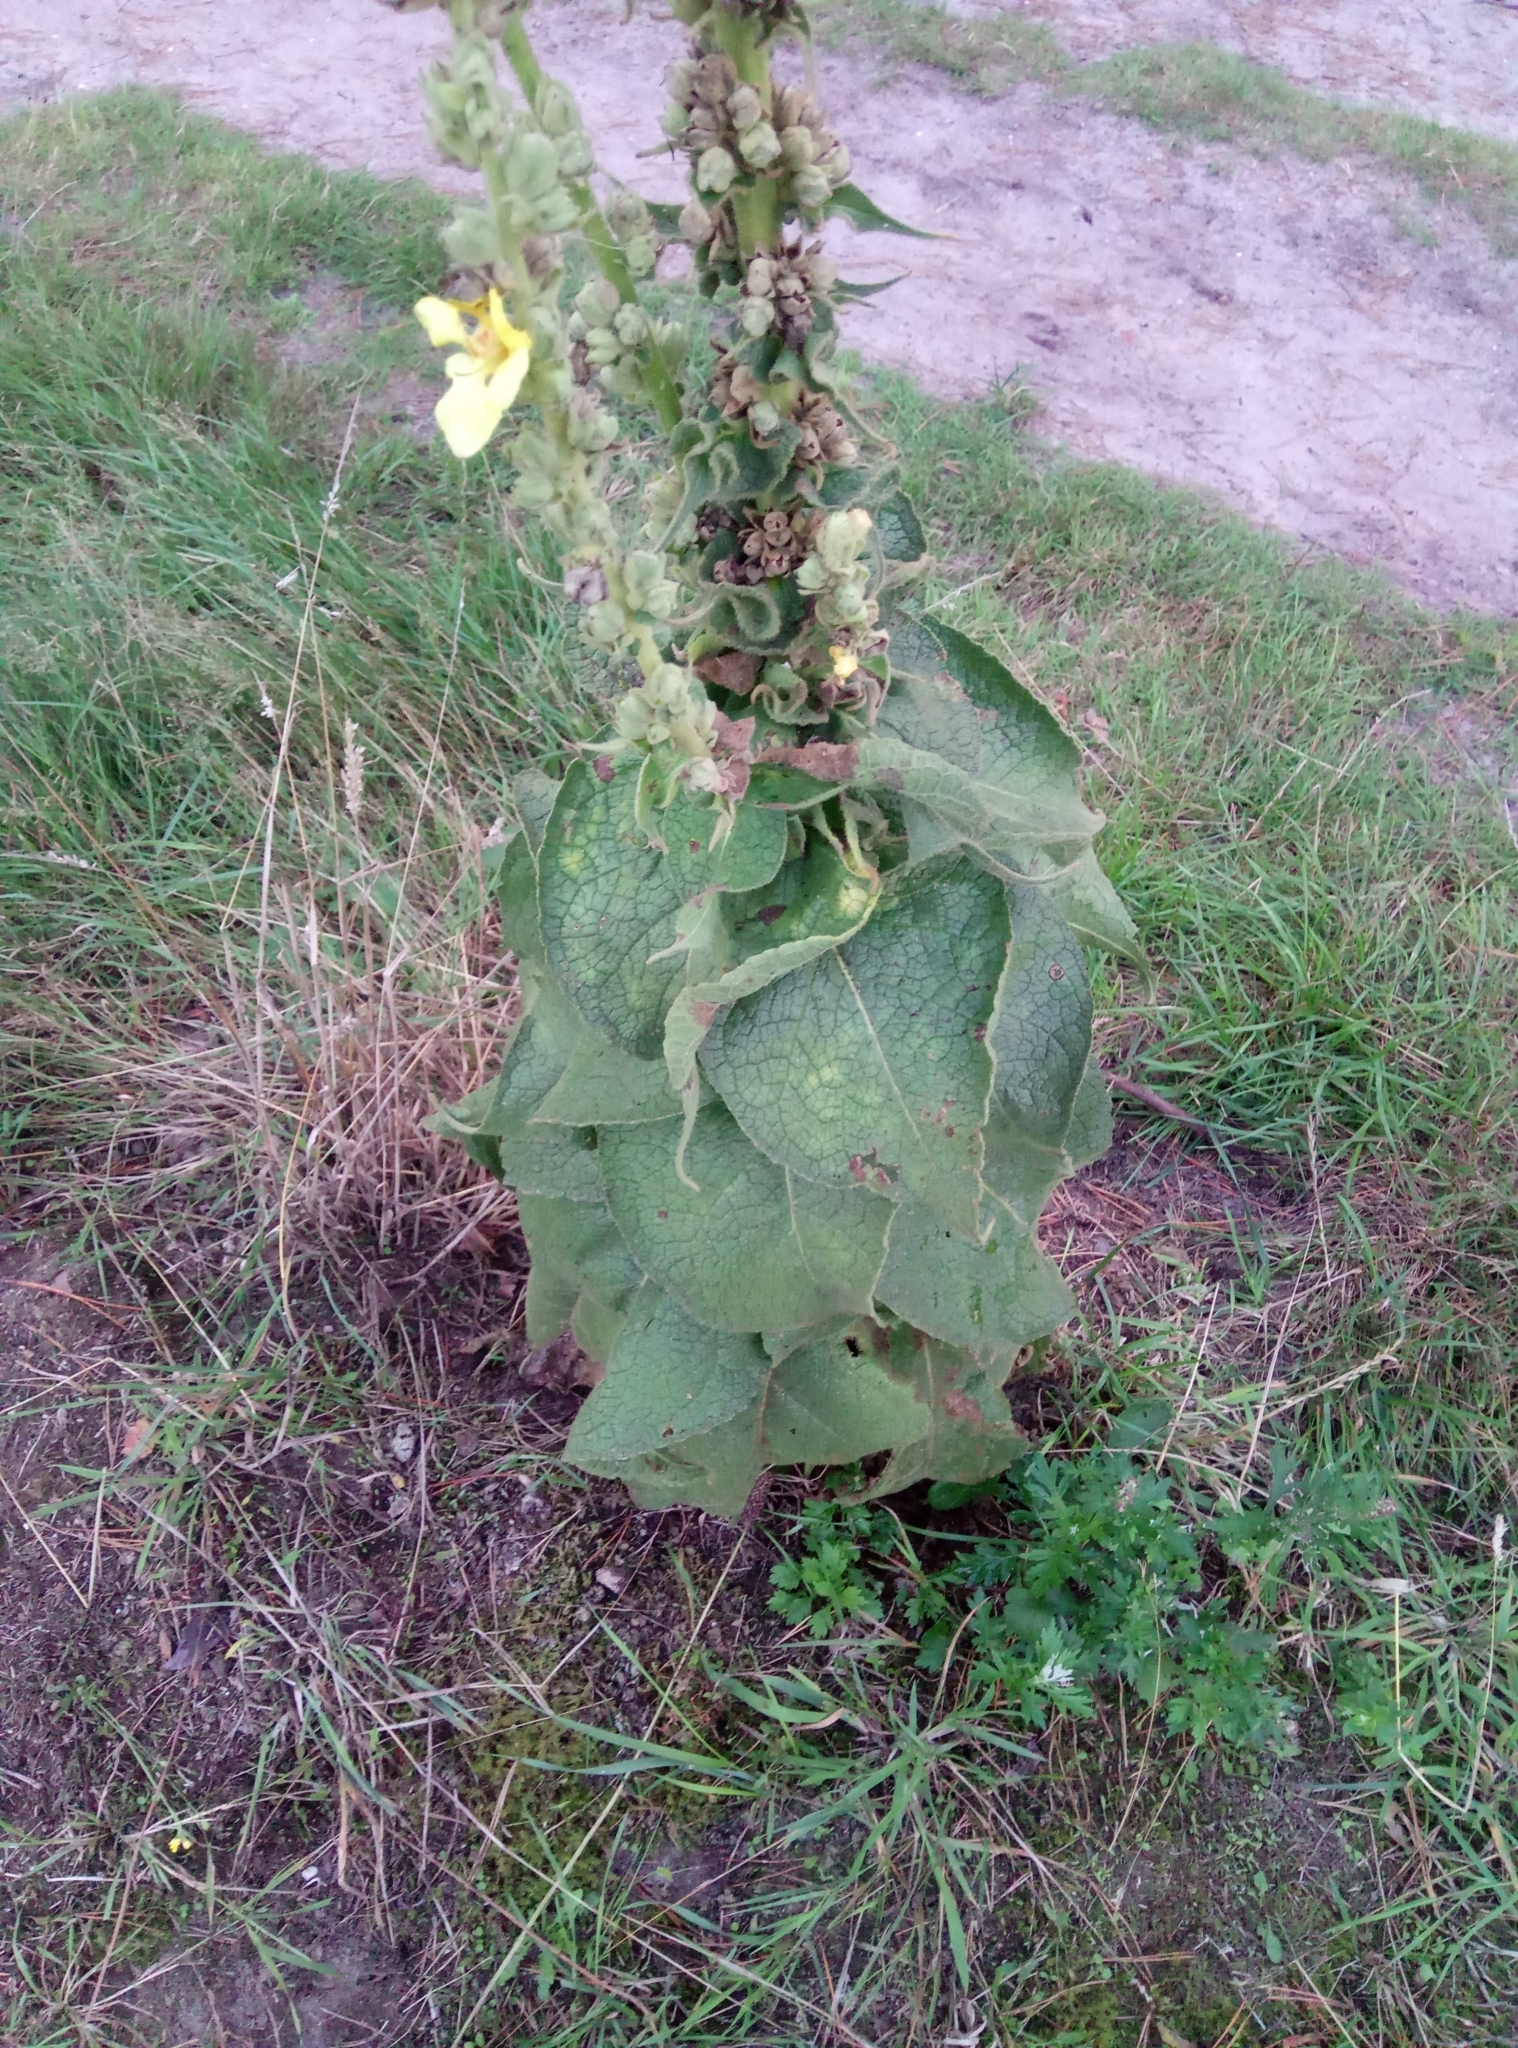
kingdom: Plantae
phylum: Tracheophyta
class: Magnoliopsida
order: Lamiales
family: Scrophulariaceae
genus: Verbascum
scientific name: Verbascum phlomoides
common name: Orange mullein
